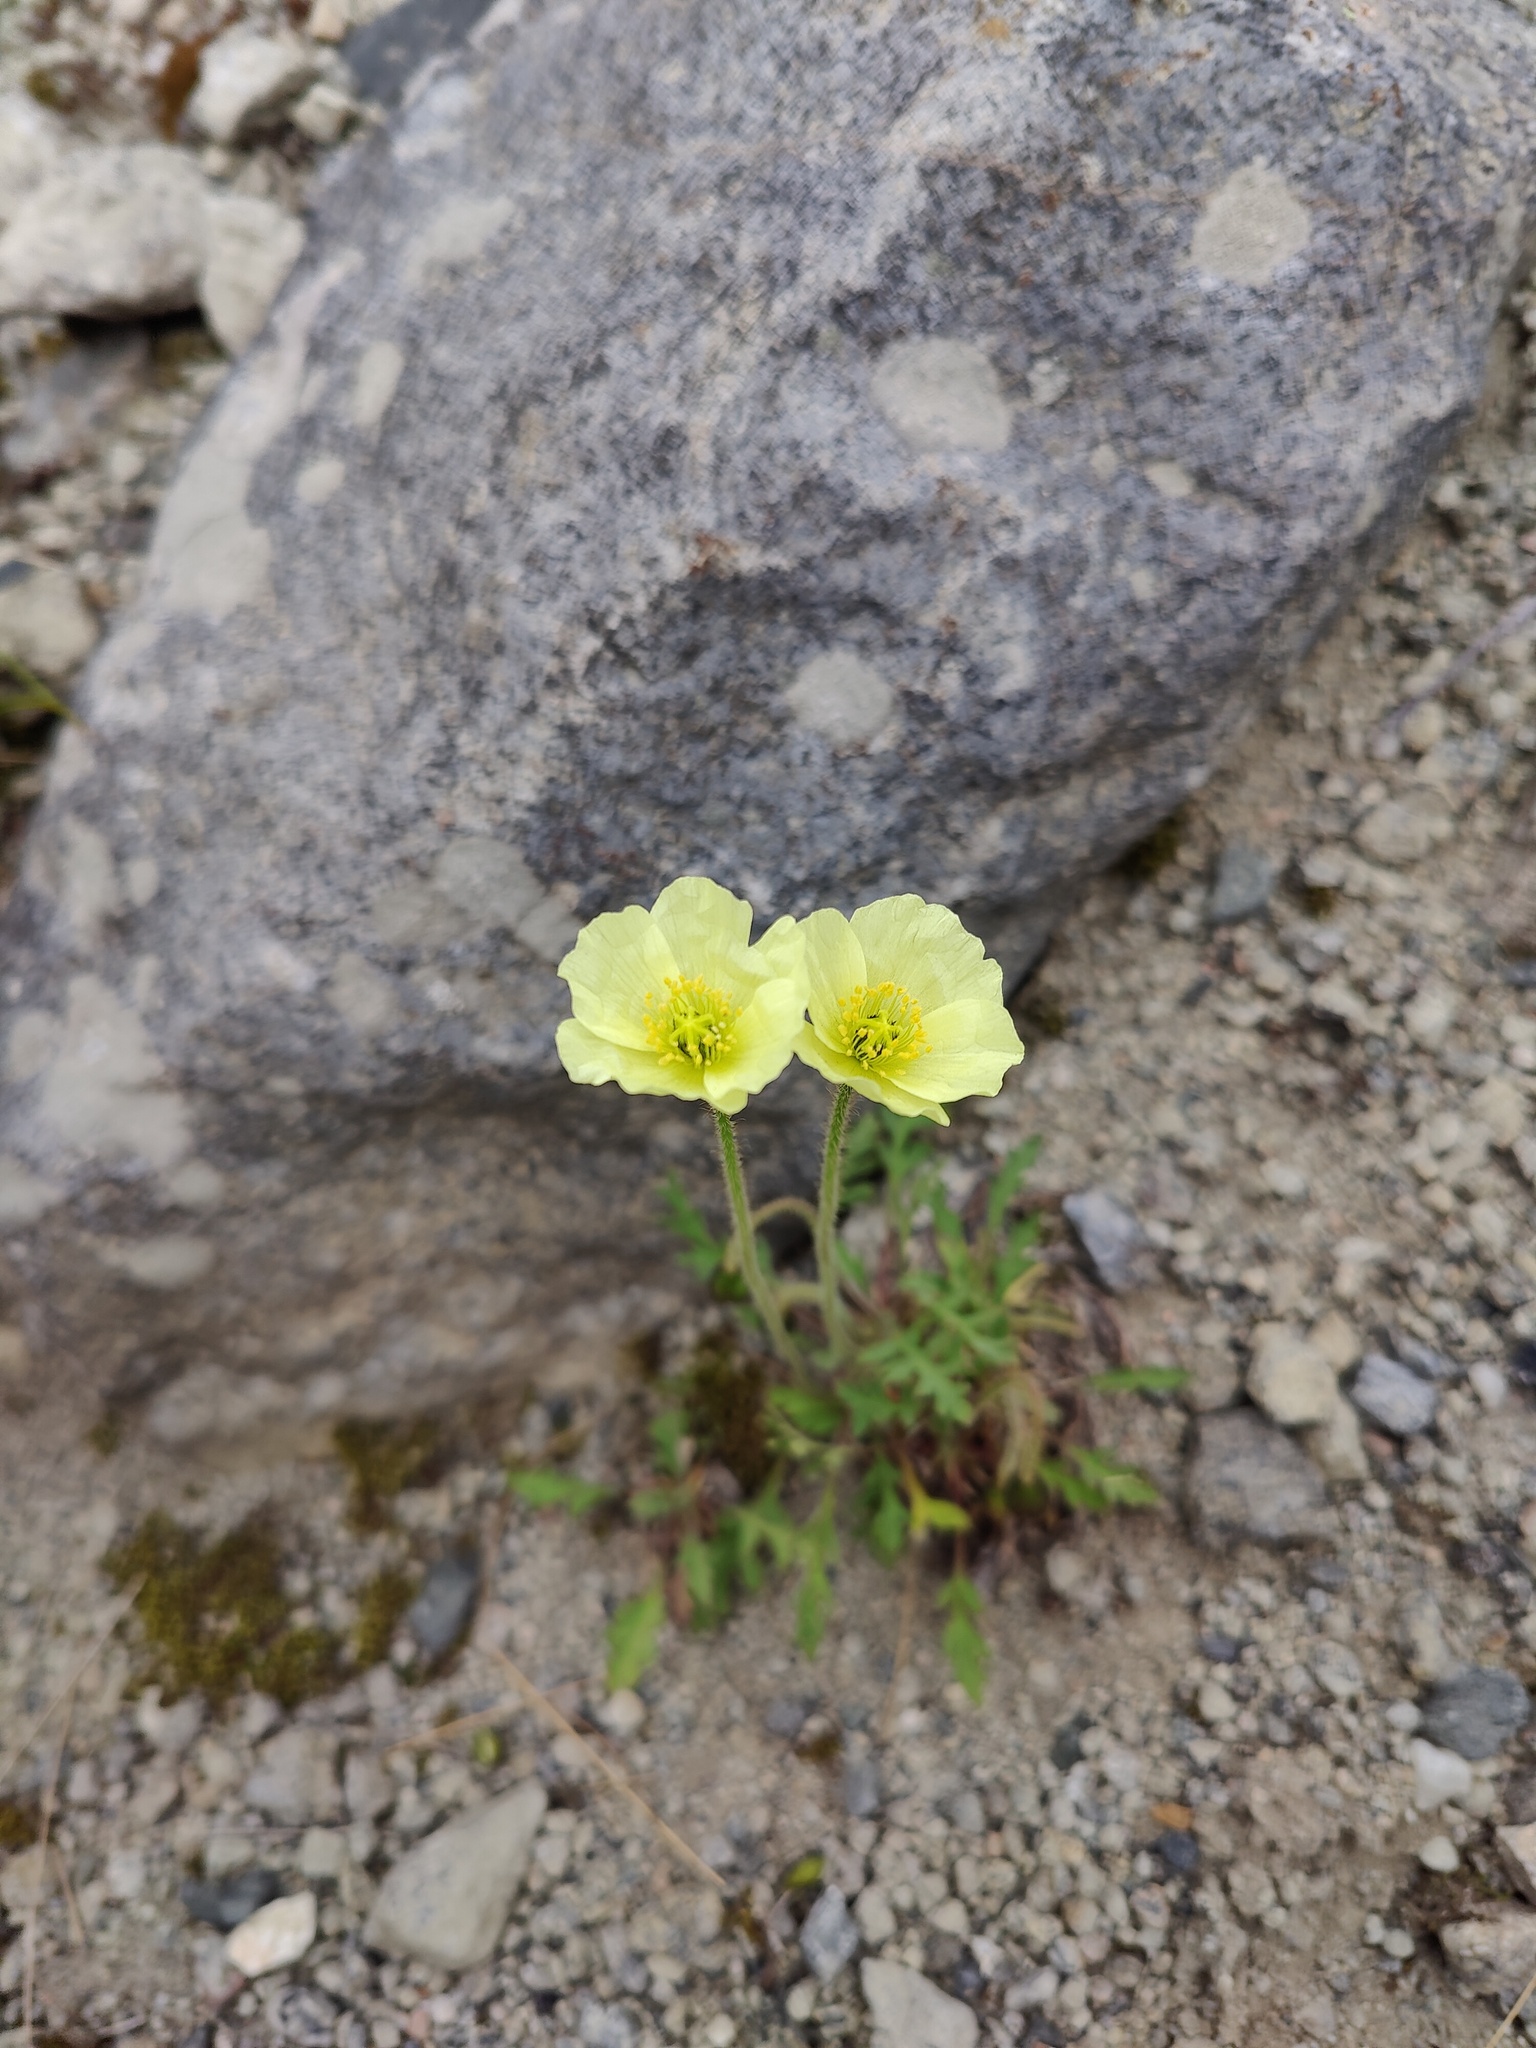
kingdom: Plantae
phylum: Tracheophyta
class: Magnoliopsida
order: Ranunculales
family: Papaveraceae
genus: Papaver
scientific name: Papaver lapponicum
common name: Lapland poppy
